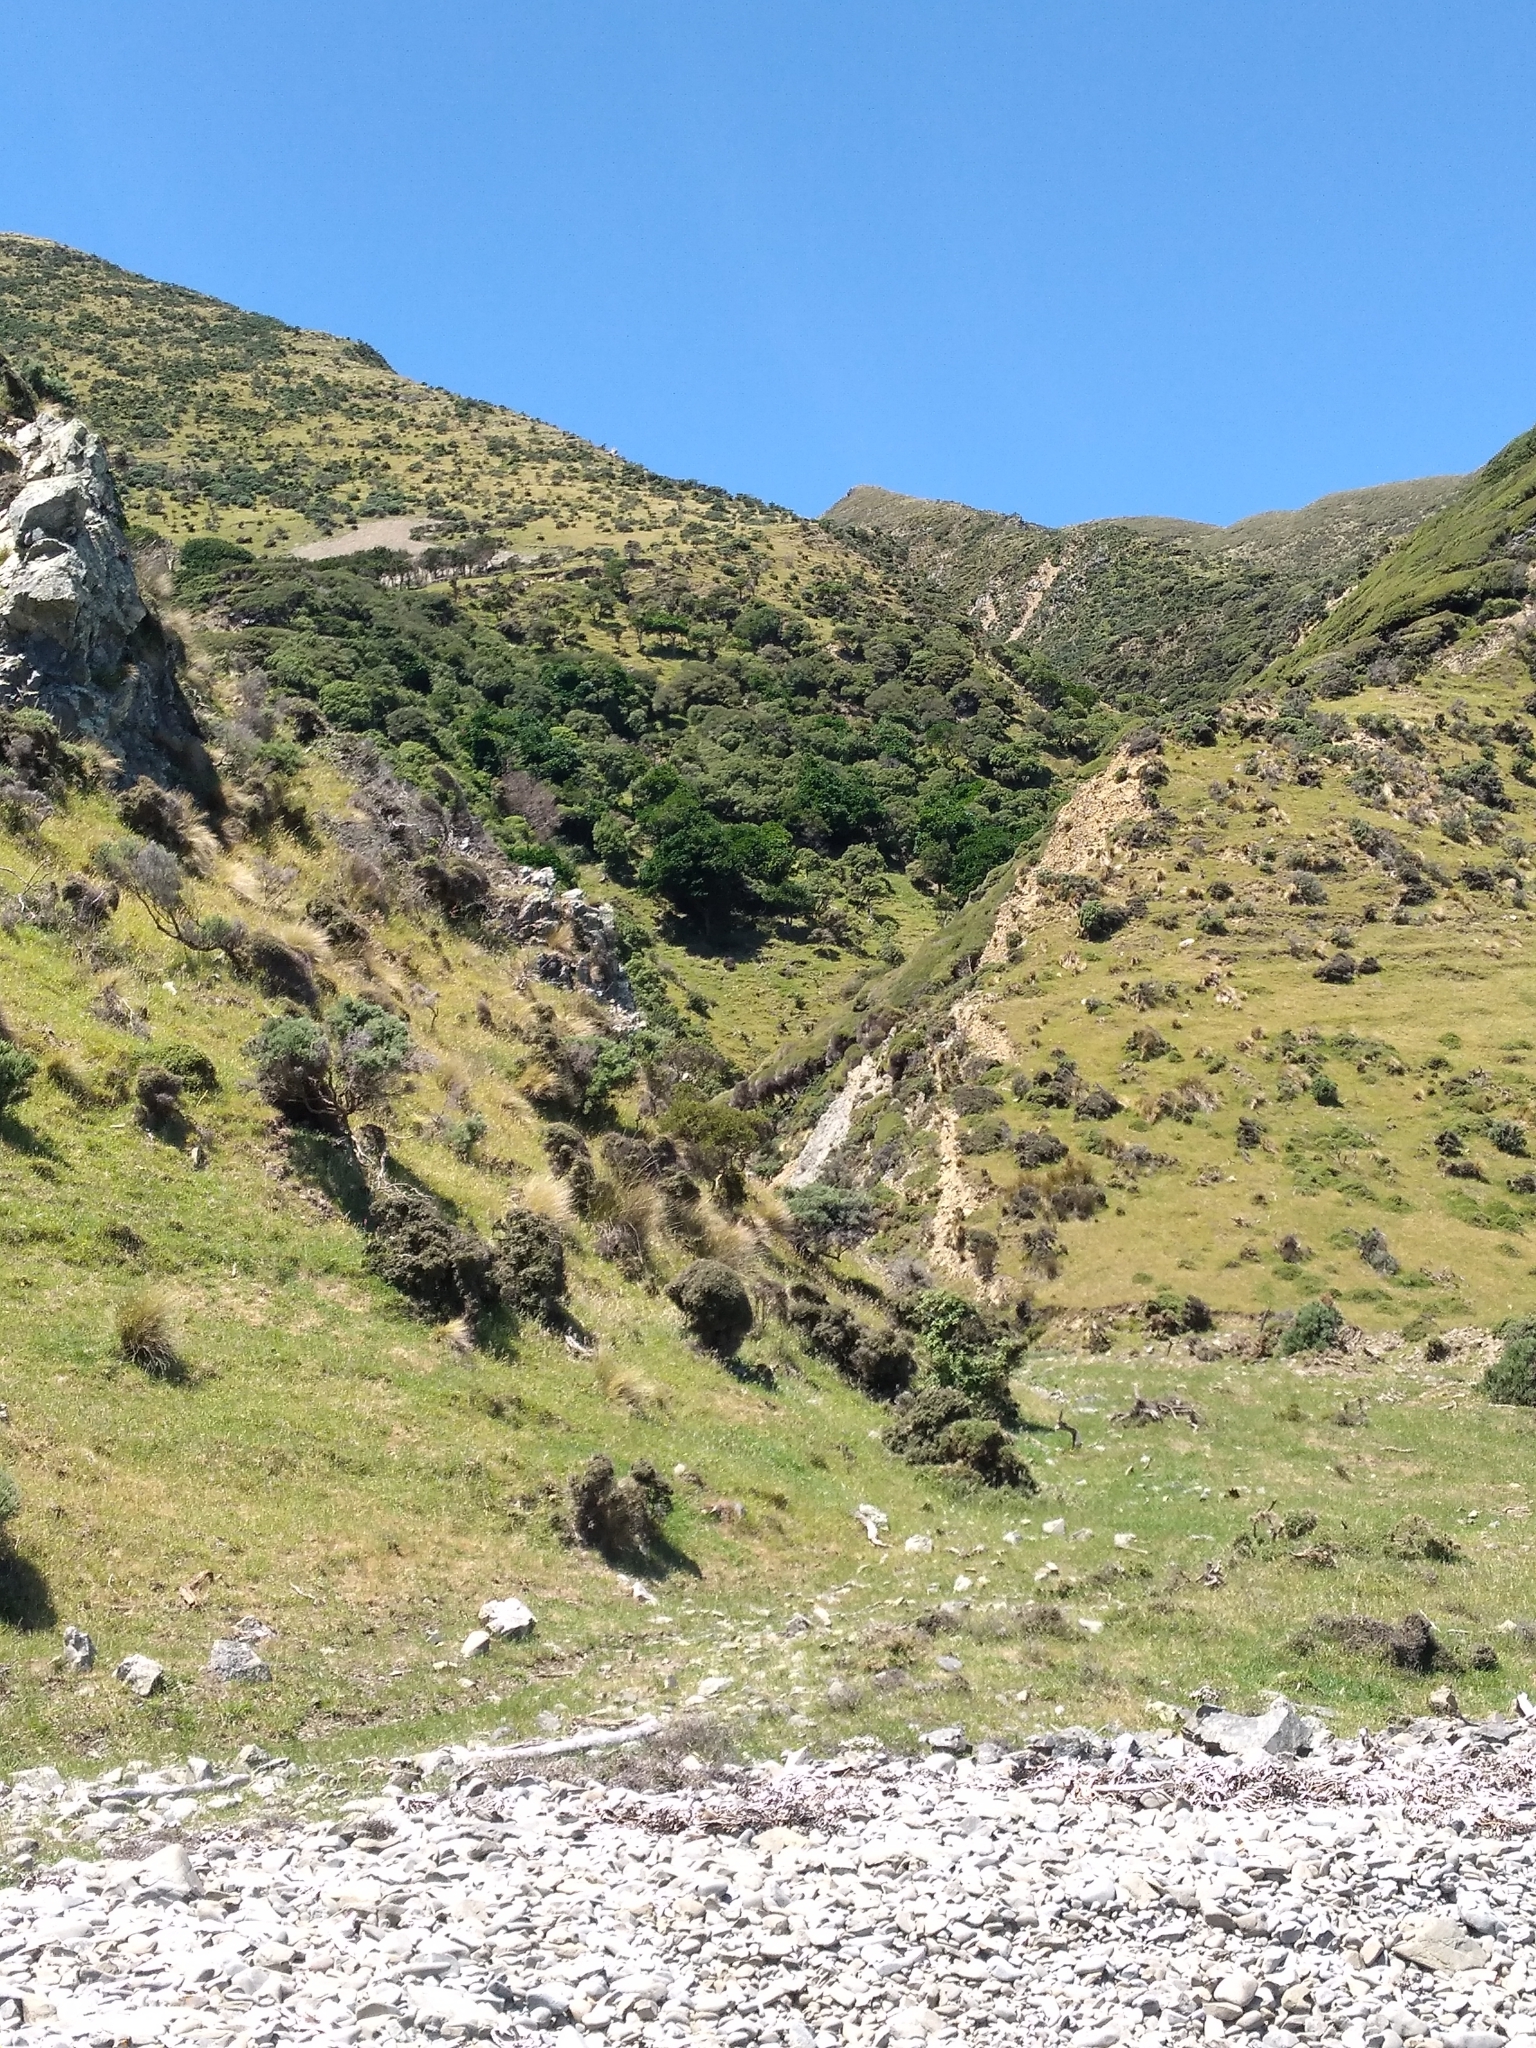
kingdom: Plantae
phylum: Tracheophyta
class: Magnoliopsida
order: Cucurbitales
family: Corynocarpaceae
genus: Corynocarpus
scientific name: Corynocarpus laevigatus
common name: New zealand laurel
